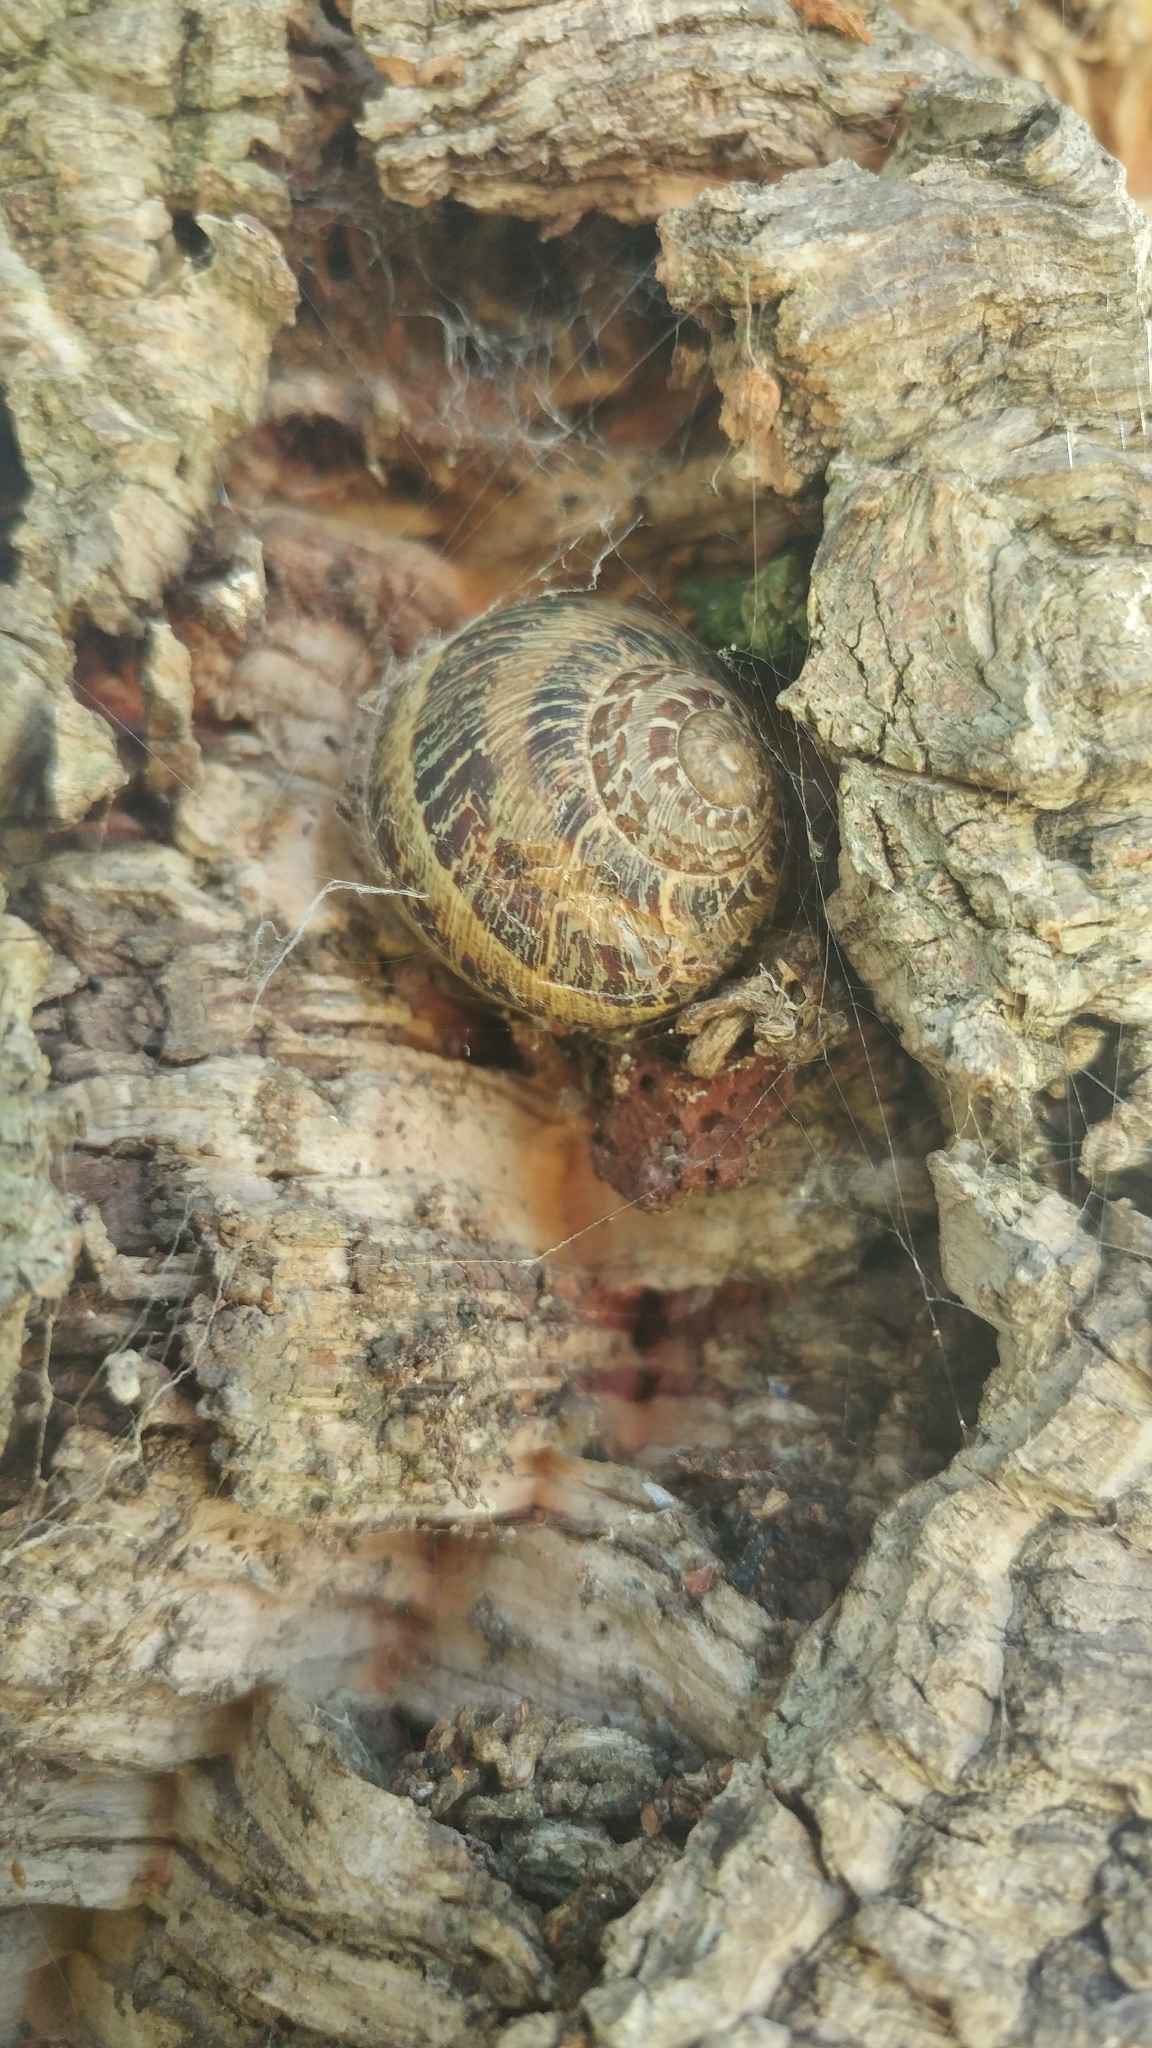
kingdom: Animalia
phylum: Mollusca
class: Gastropoda
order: Stylommatophora
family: Helicidae
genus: Cornu
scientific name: Cornu aspersum
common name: Brown garden snail
